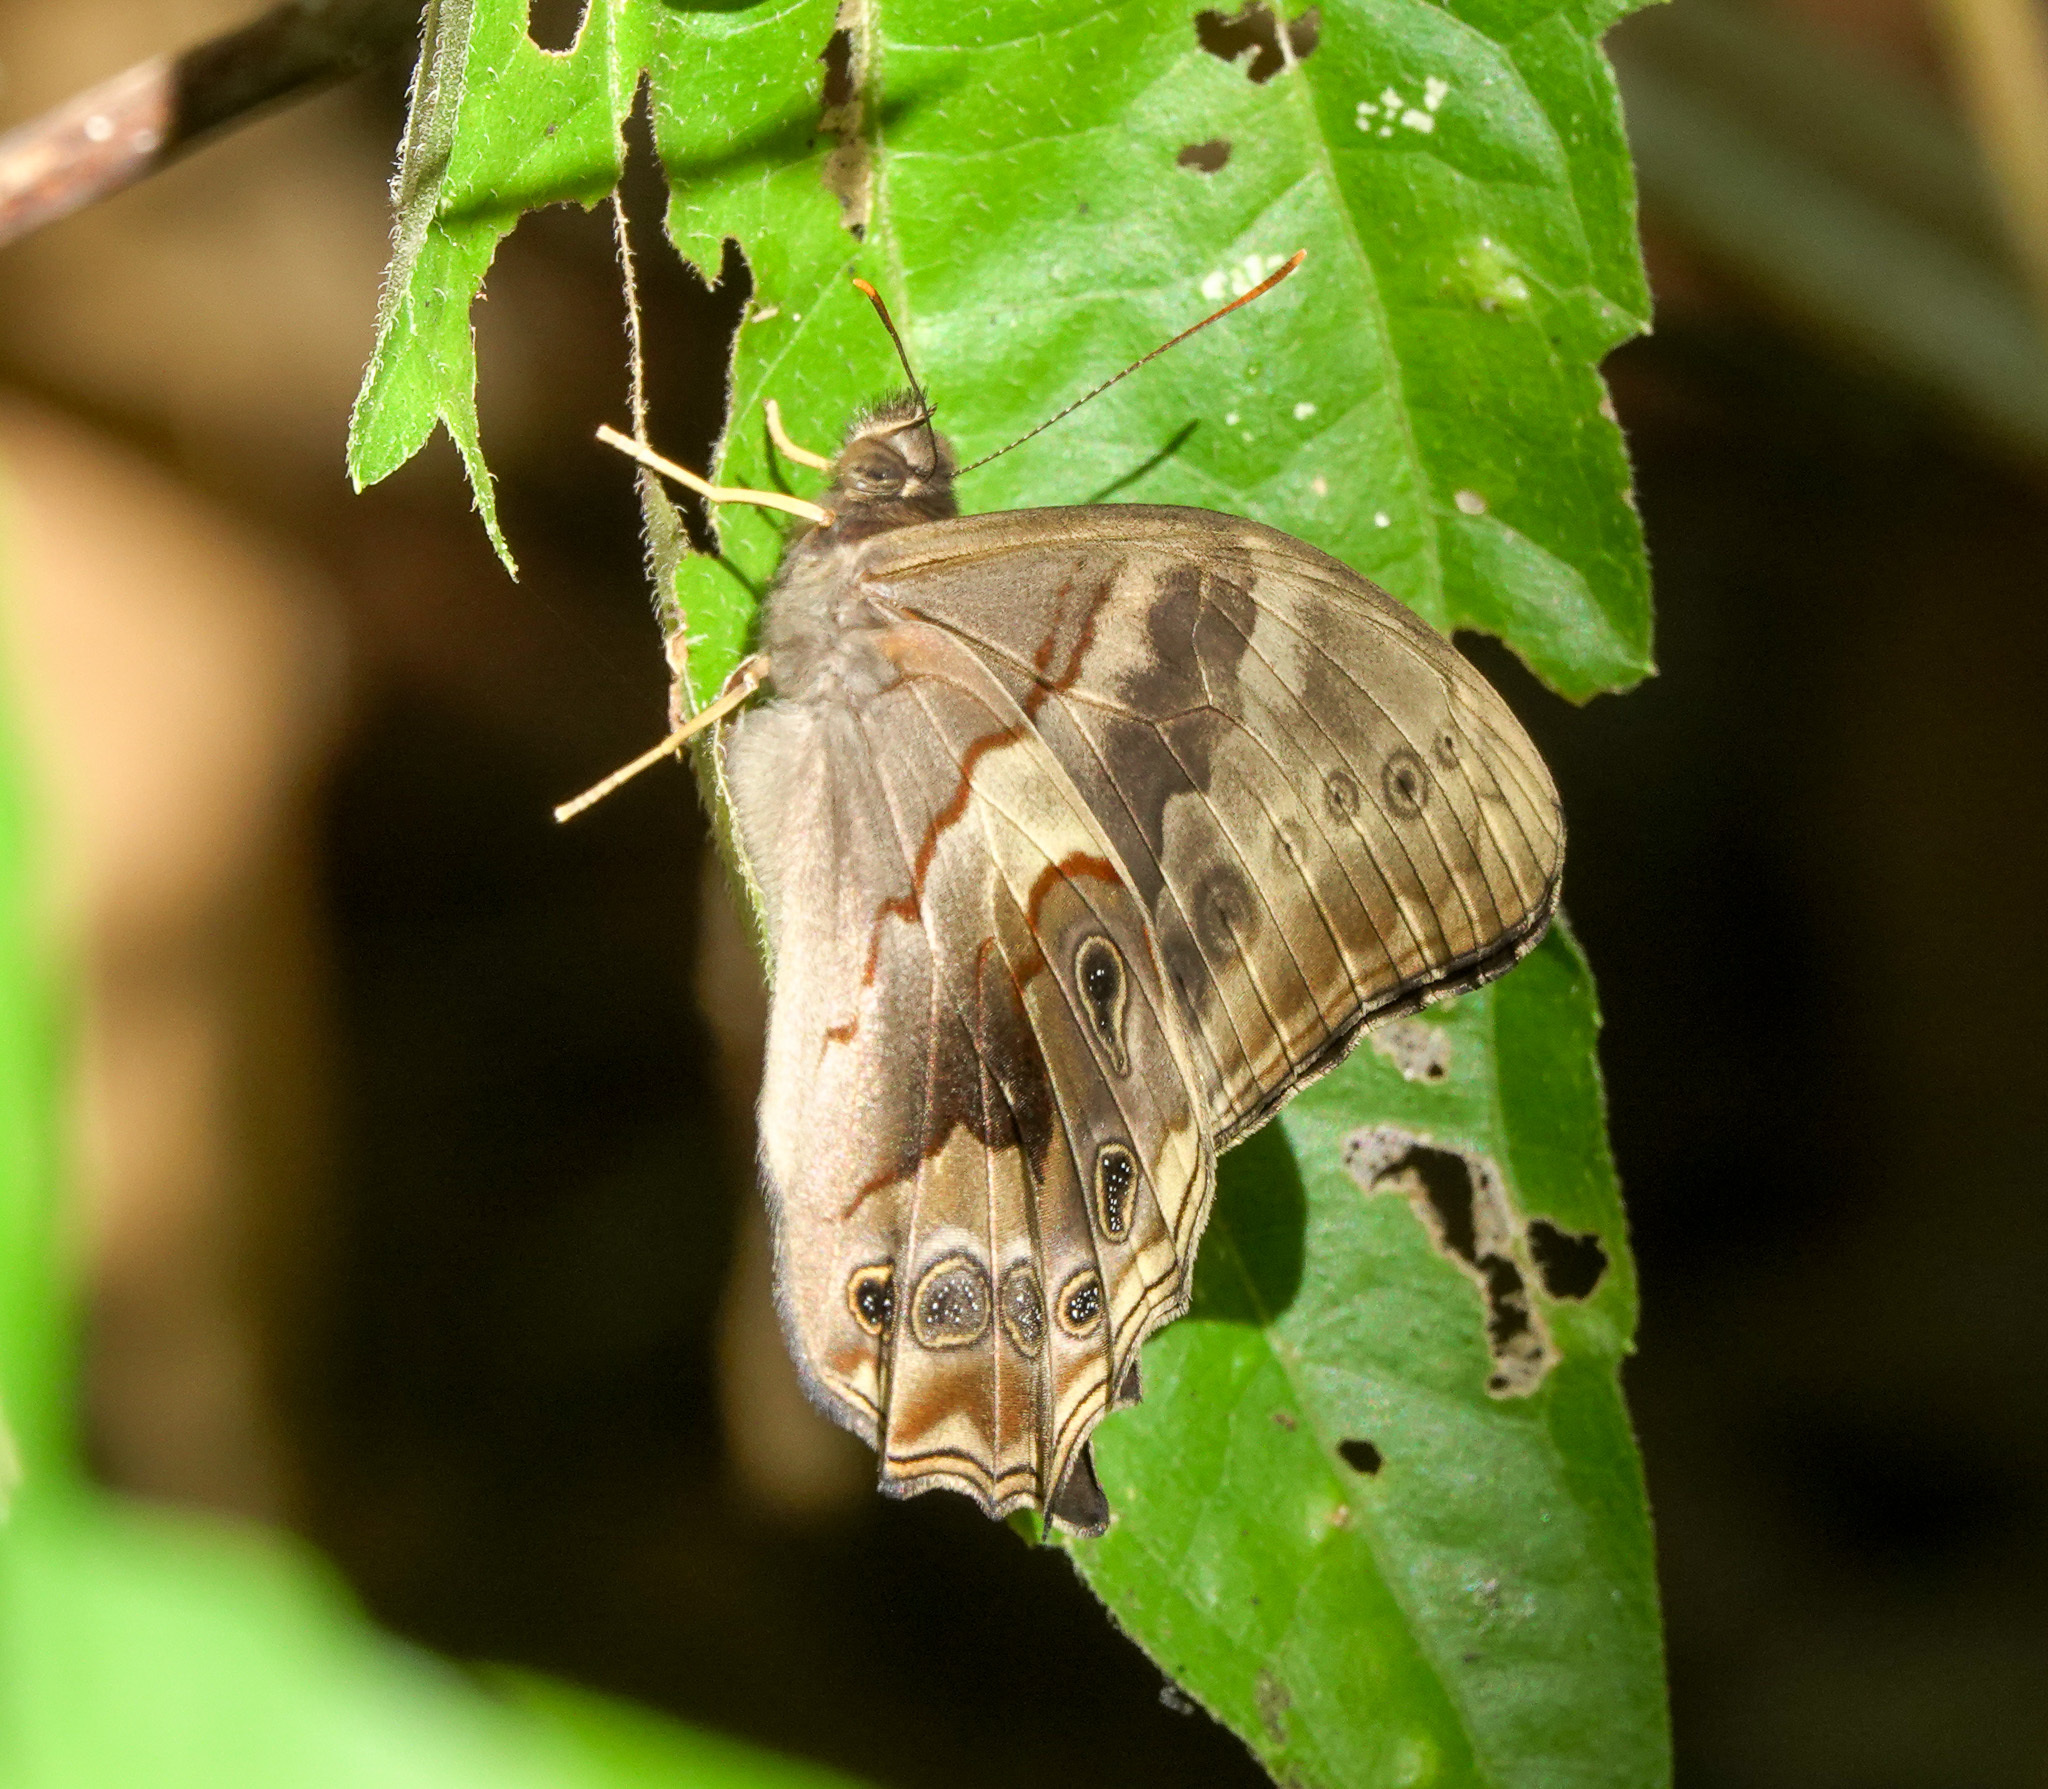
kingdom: Animalia
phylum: Arthropoda
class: Insecta
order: Lepidoptera
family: Nymphalidae
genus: Lethe
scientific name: Lethe chandica
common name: Angled red forester
